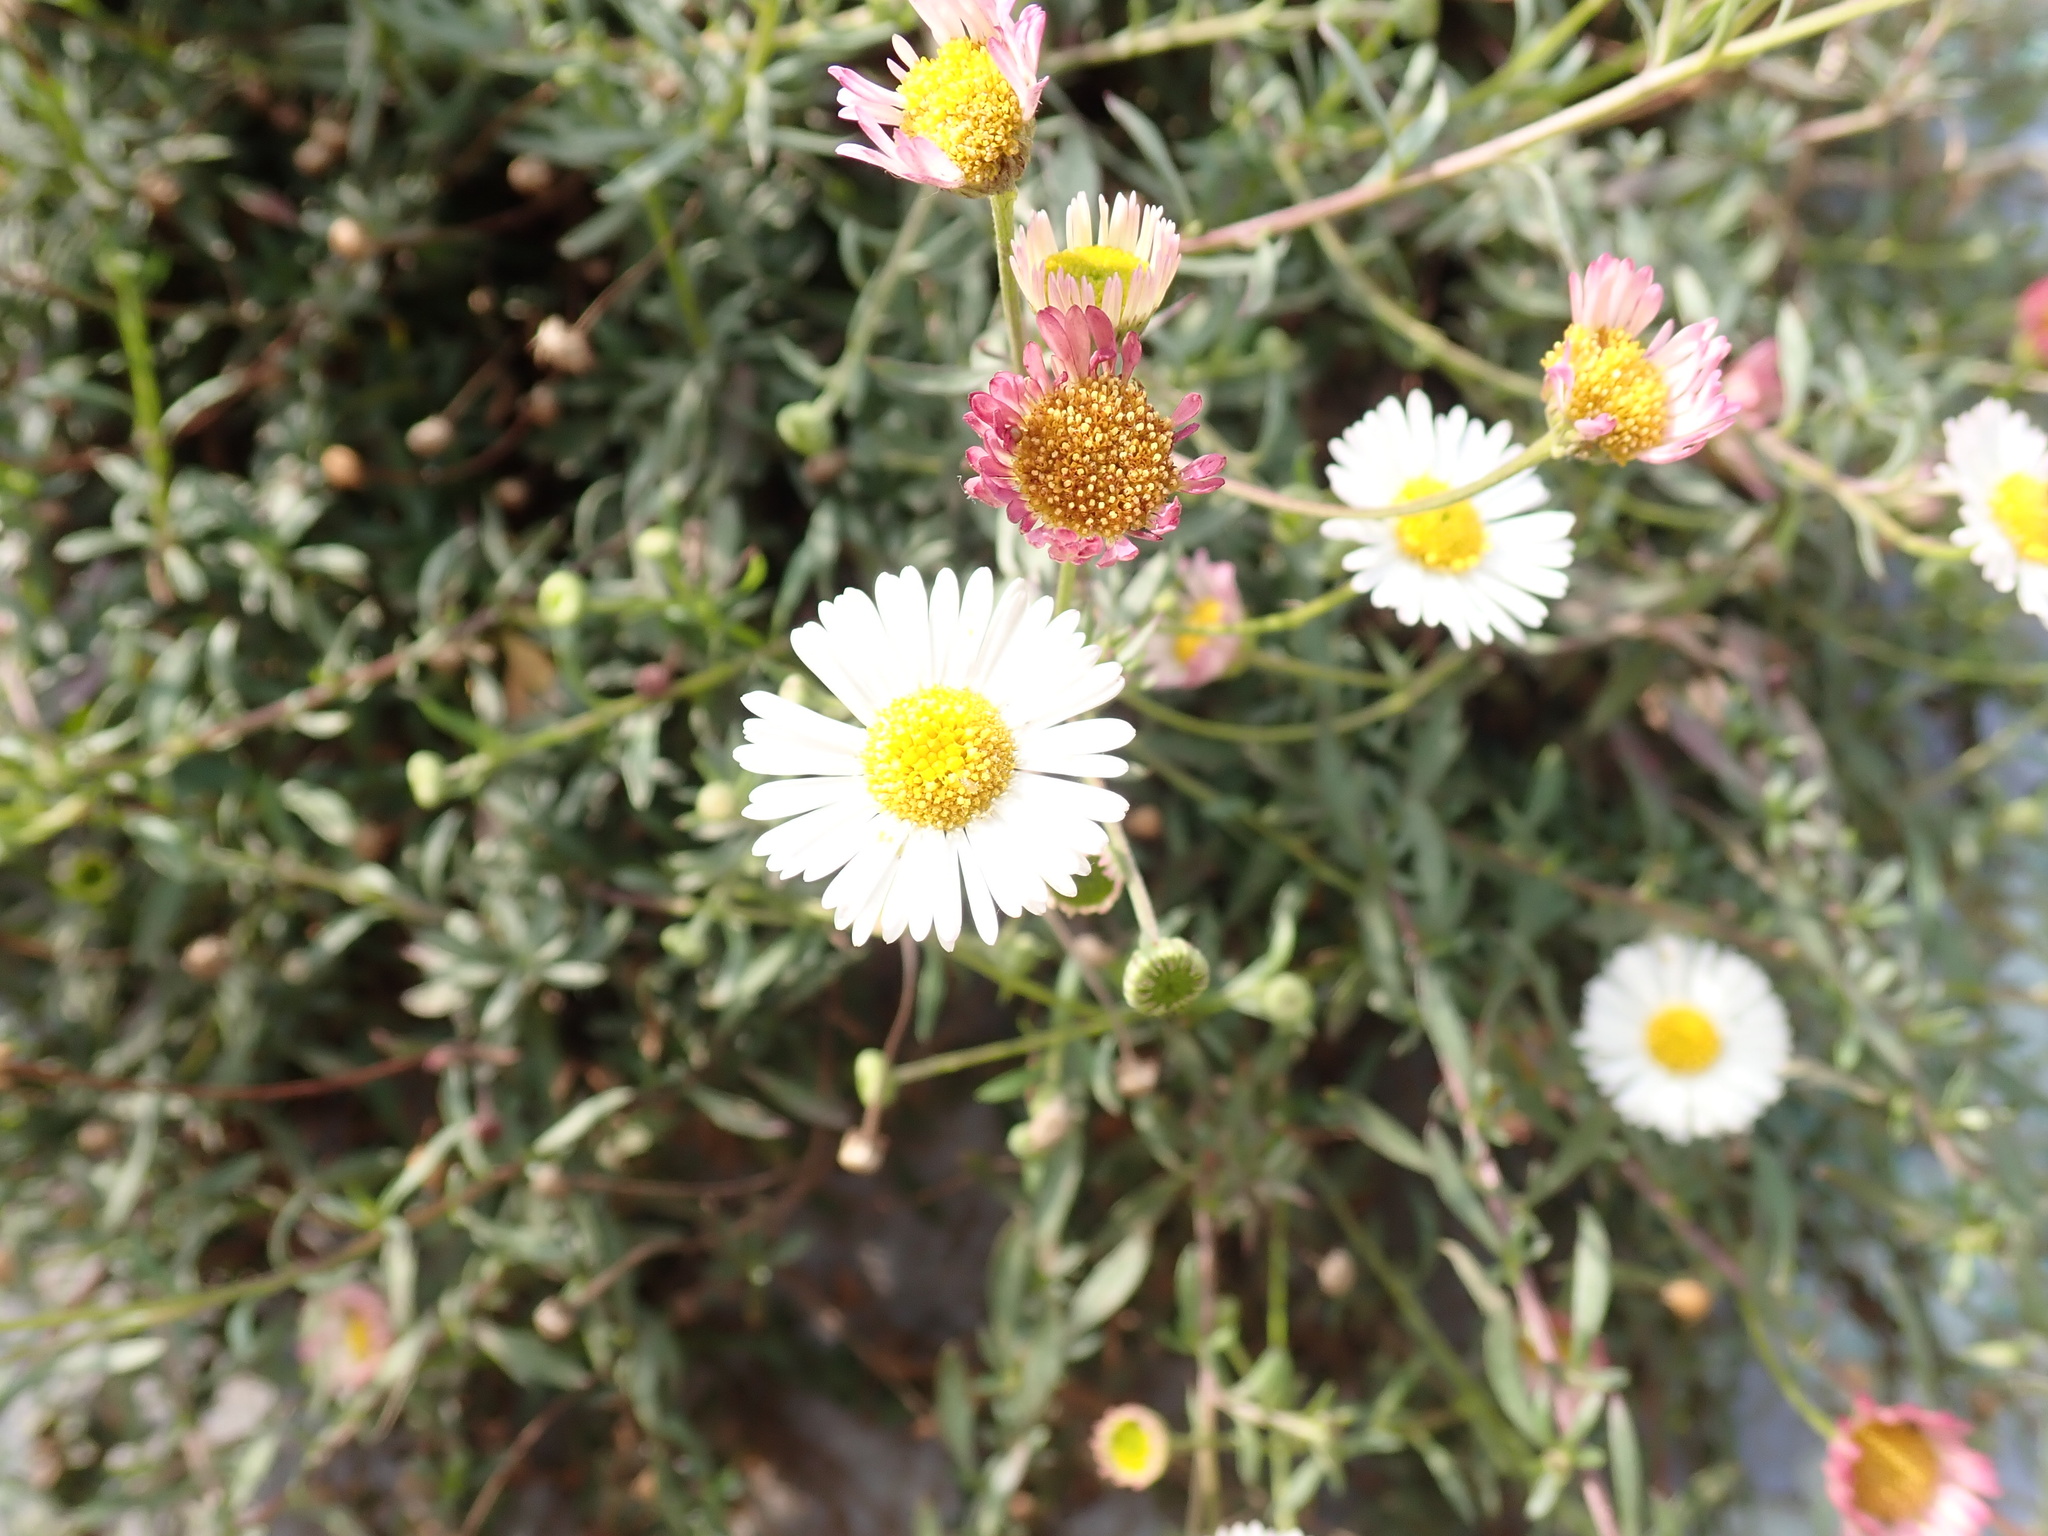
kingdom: Plantae
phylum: Tracheophyta
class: Magnoliopsida
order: Asterales
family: Asteraceae
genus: Erigeron
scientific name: Erigeron karvinskianus
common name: Mexican fleabane
